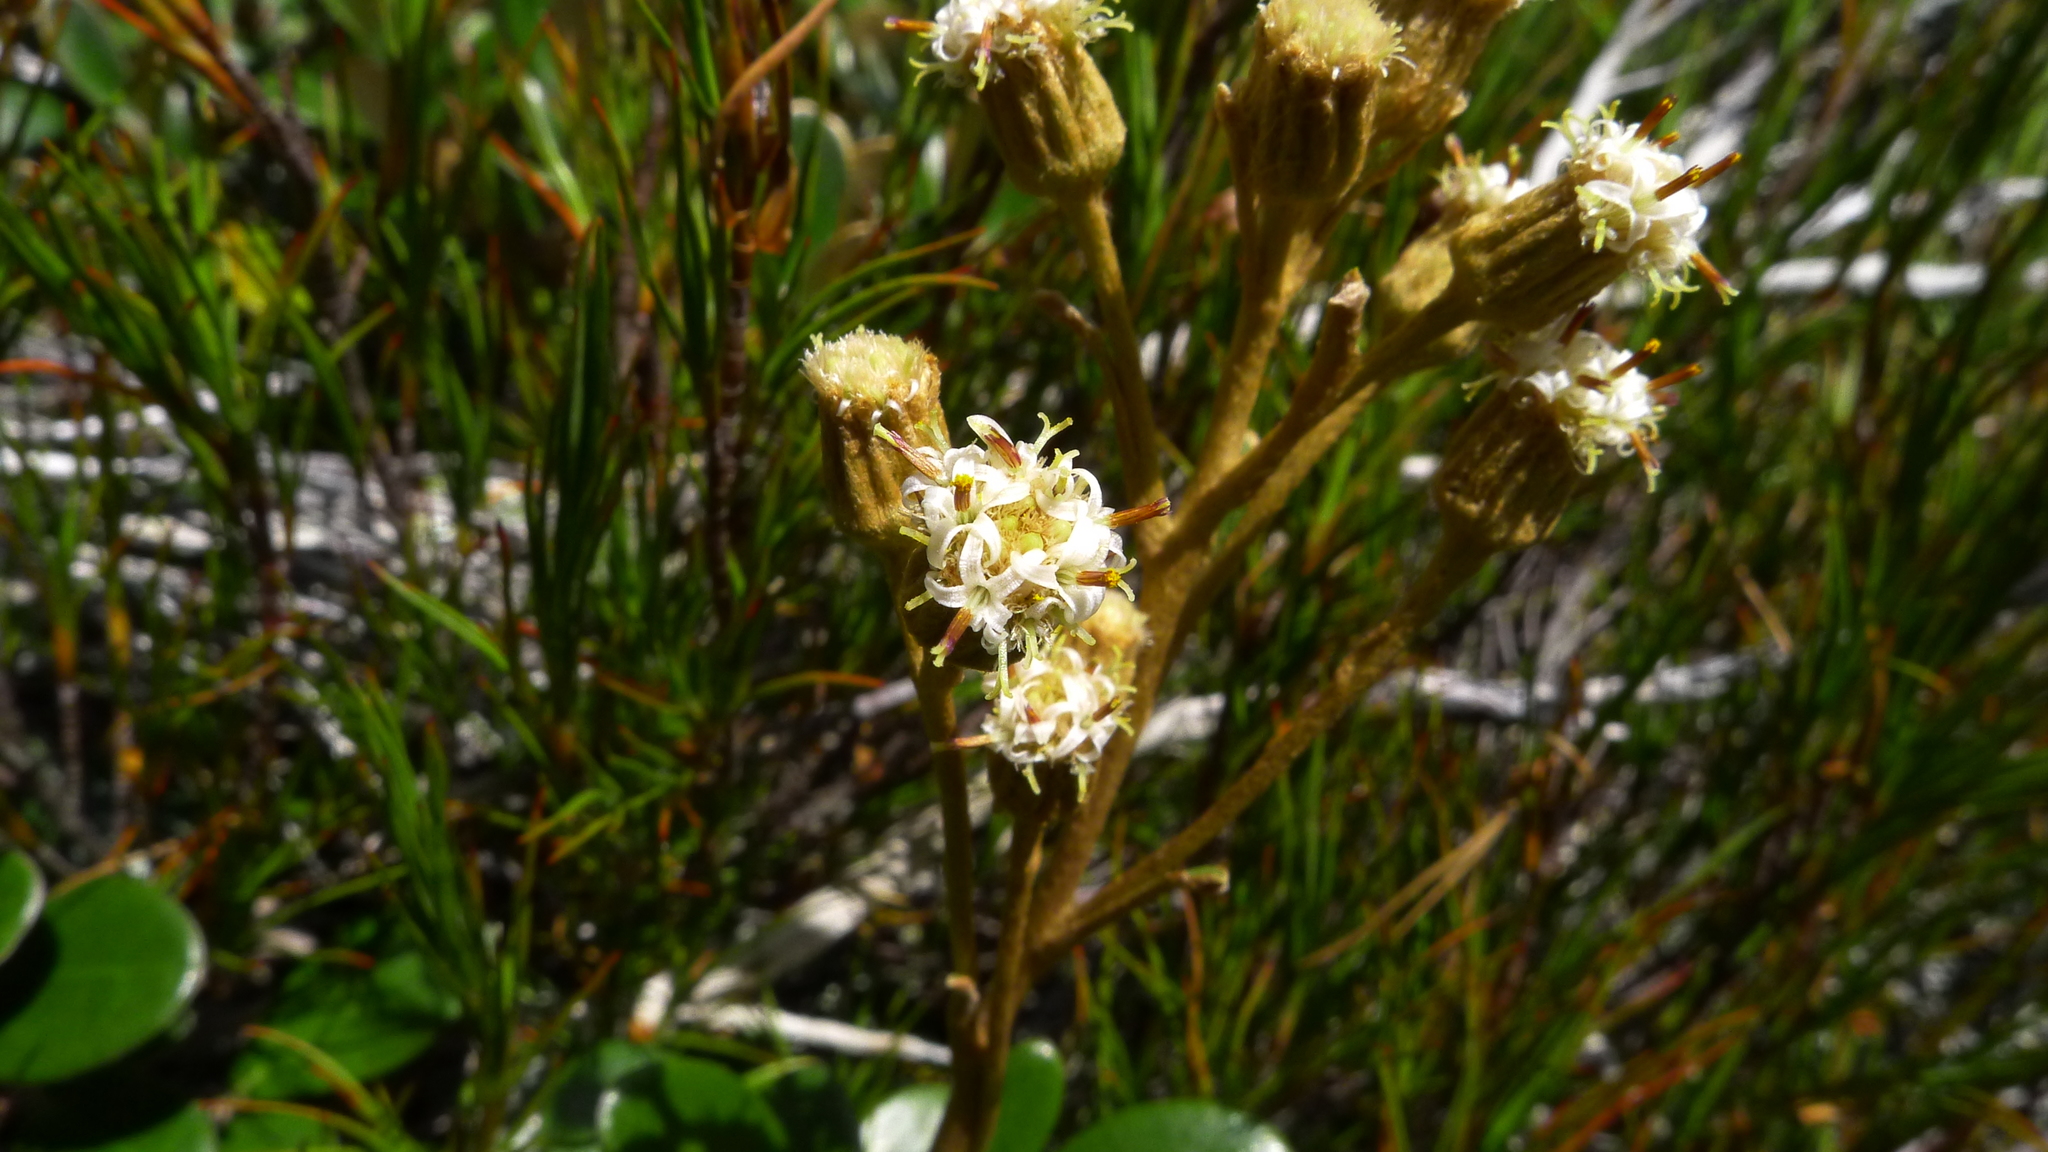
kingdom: Plantae
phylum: Tracheophyta
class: Magnoliopsida
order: Asterales
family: Asteraceae
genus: Brachyglottis
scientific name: Brachyglottis bidwillii
